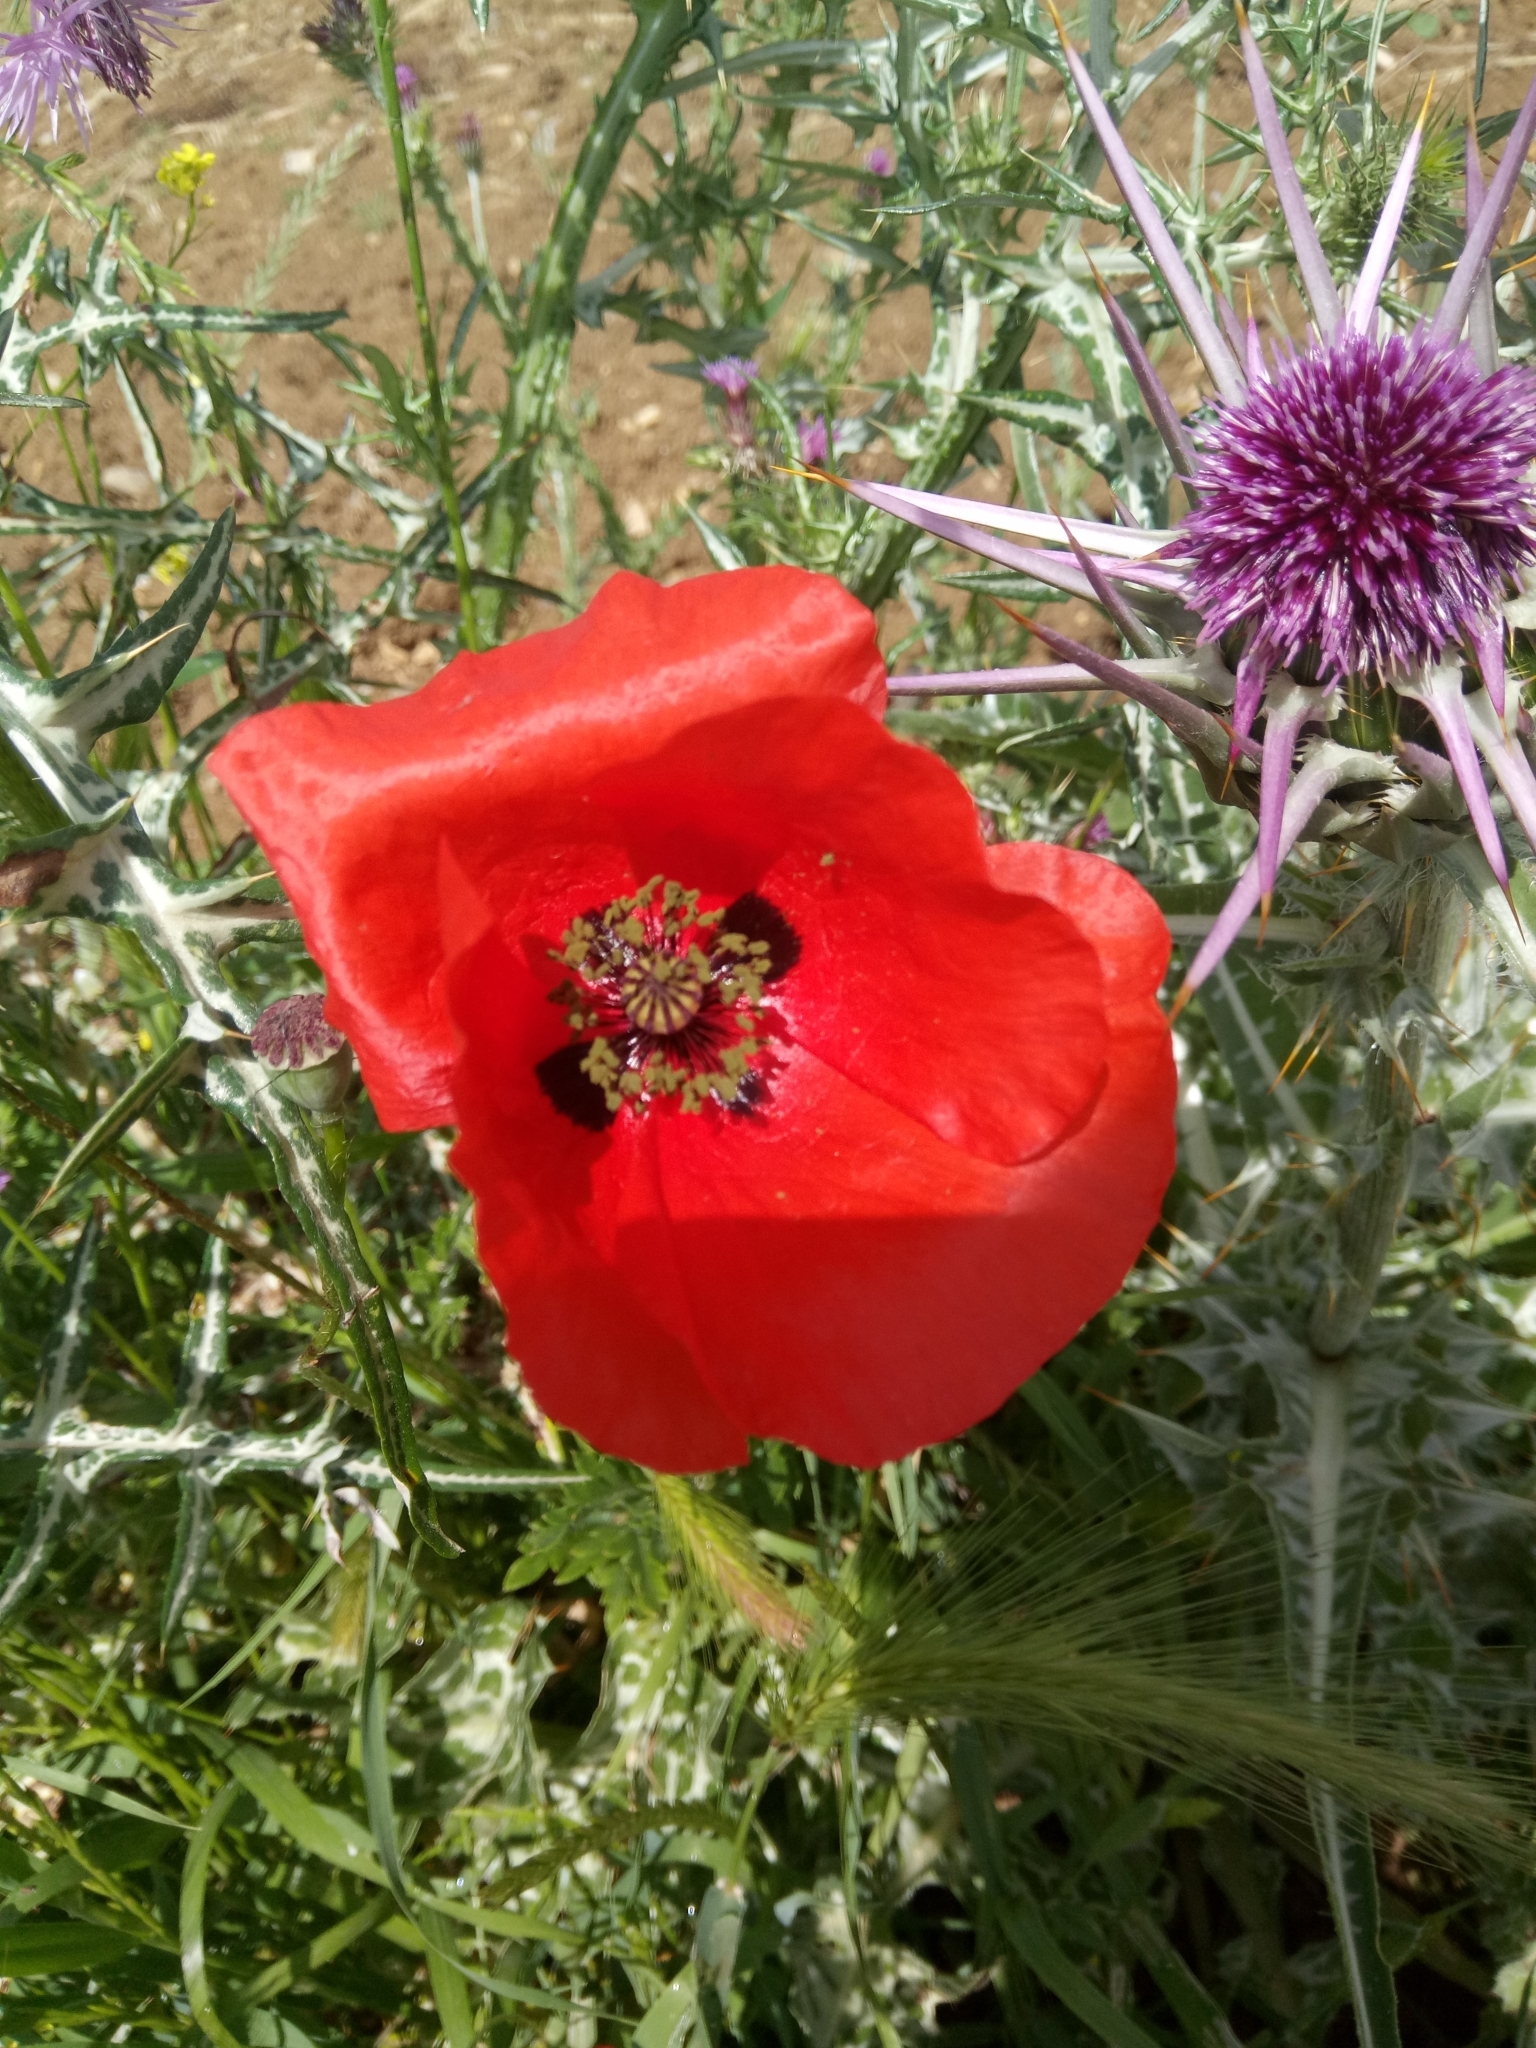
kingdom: Plantae
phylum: Tracheophyta
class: Magnoliopsida
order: Ranunculales
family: Papaveraceae
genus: Papaver
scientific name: Papaver rhoeas
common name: Corn poppy
